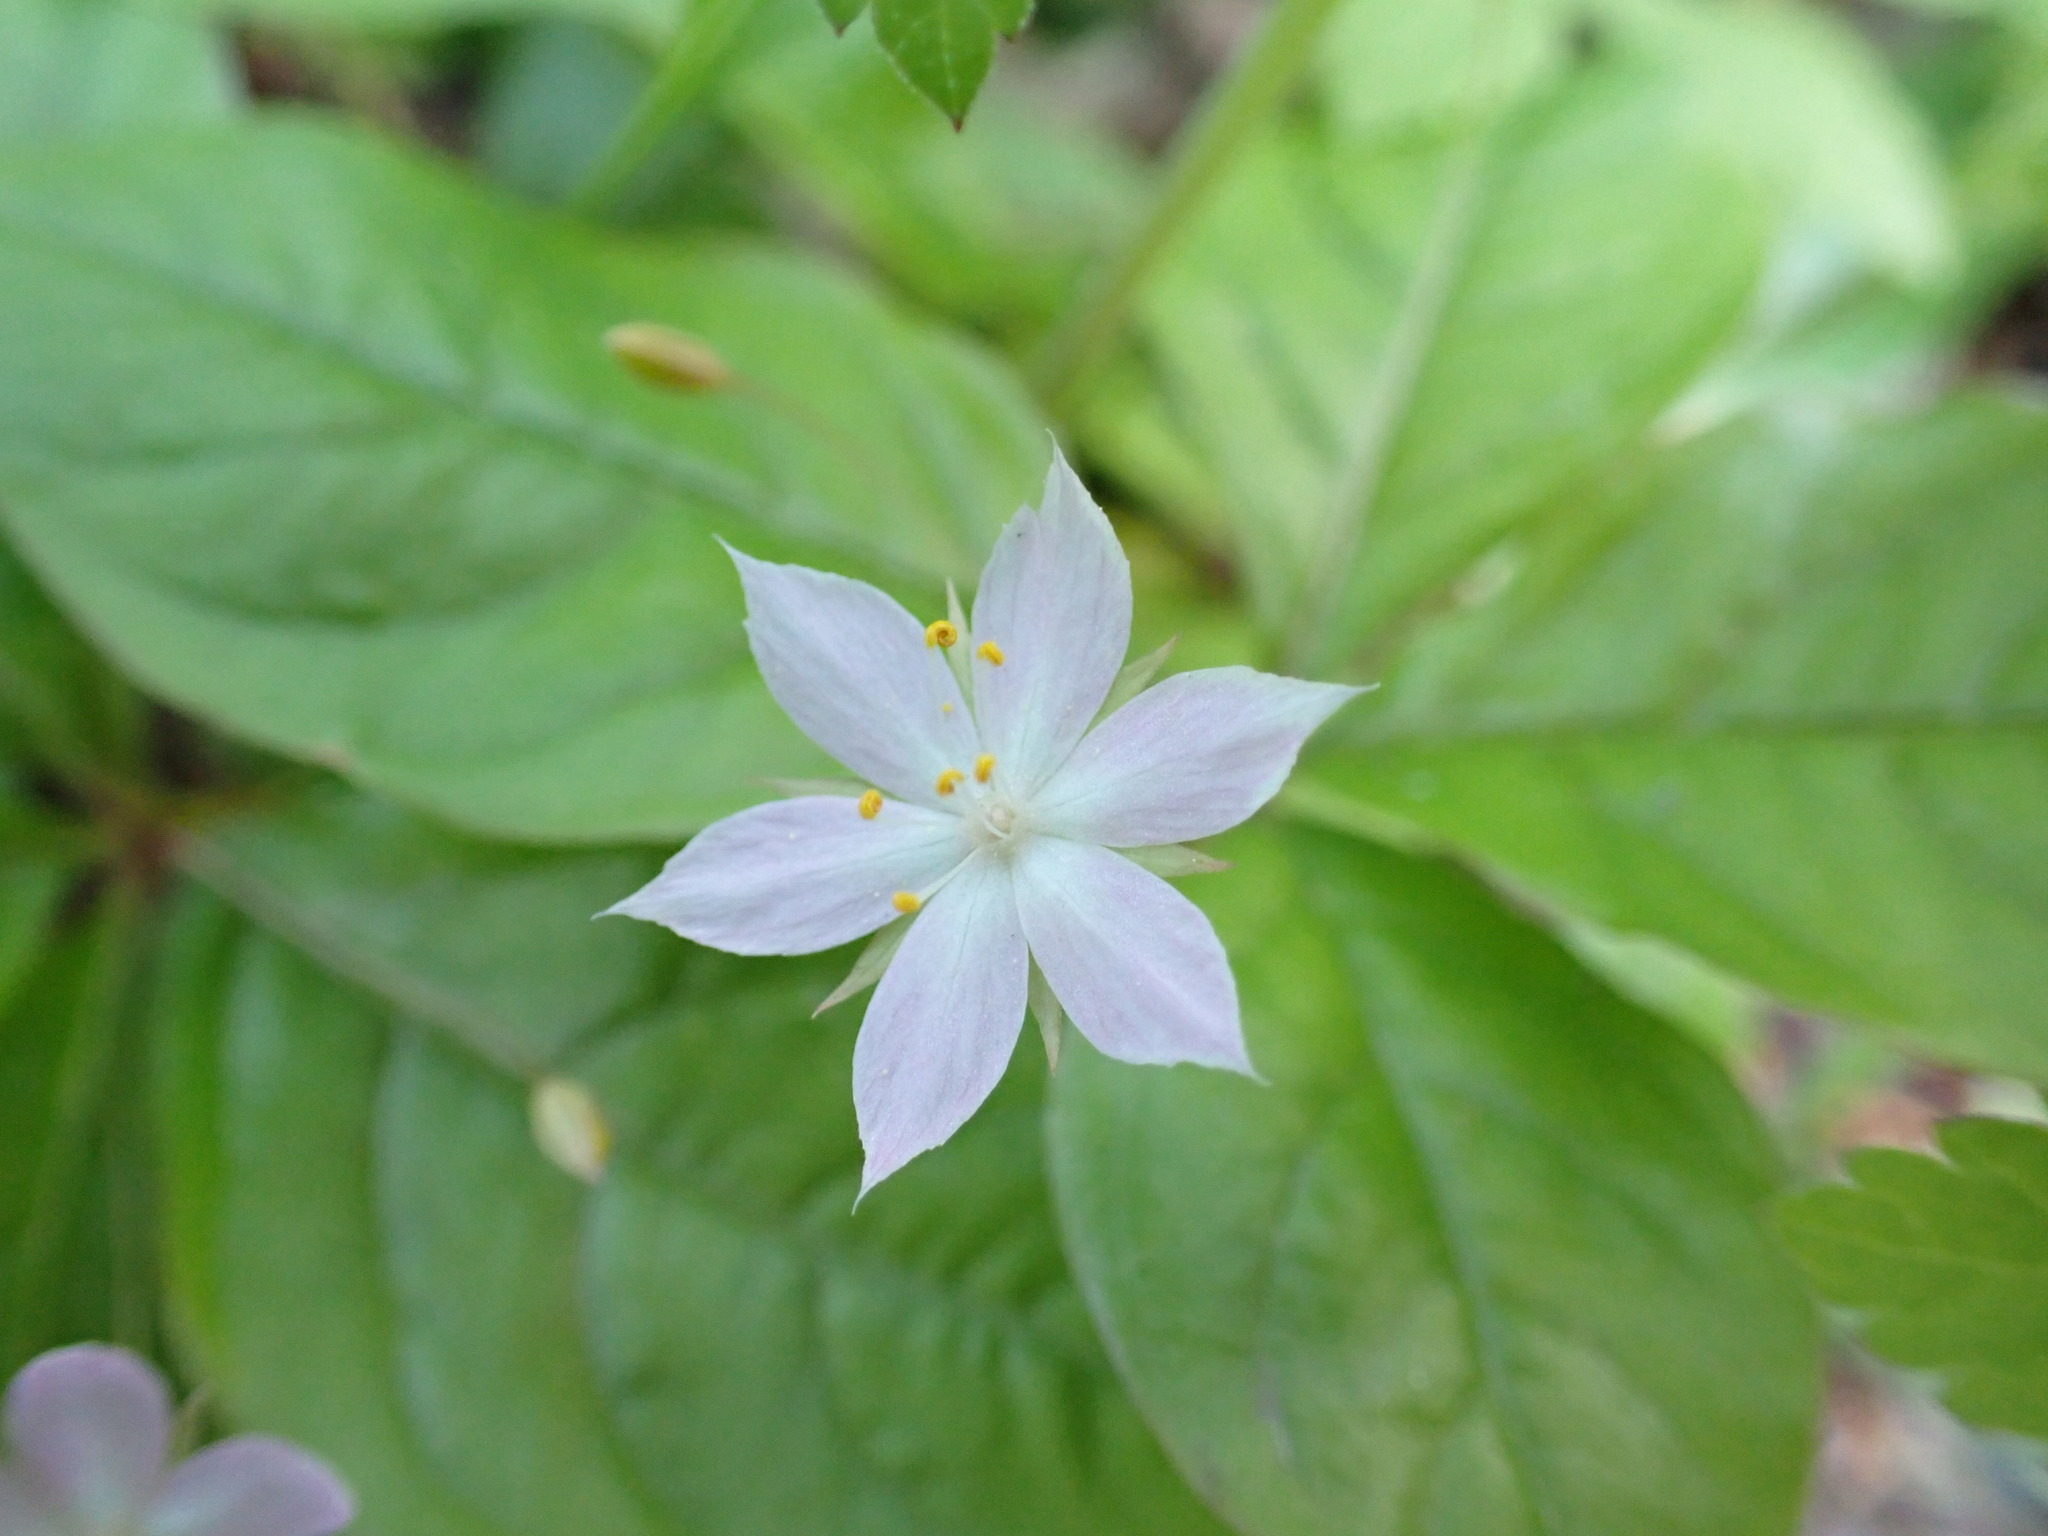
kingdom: Plantae
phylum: Tracheophyta
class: Magnoliopsida
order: Ericales
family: Primulaceae
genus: Lysimachia
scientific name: Lysimachia latifolia
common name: Pacific starflower
